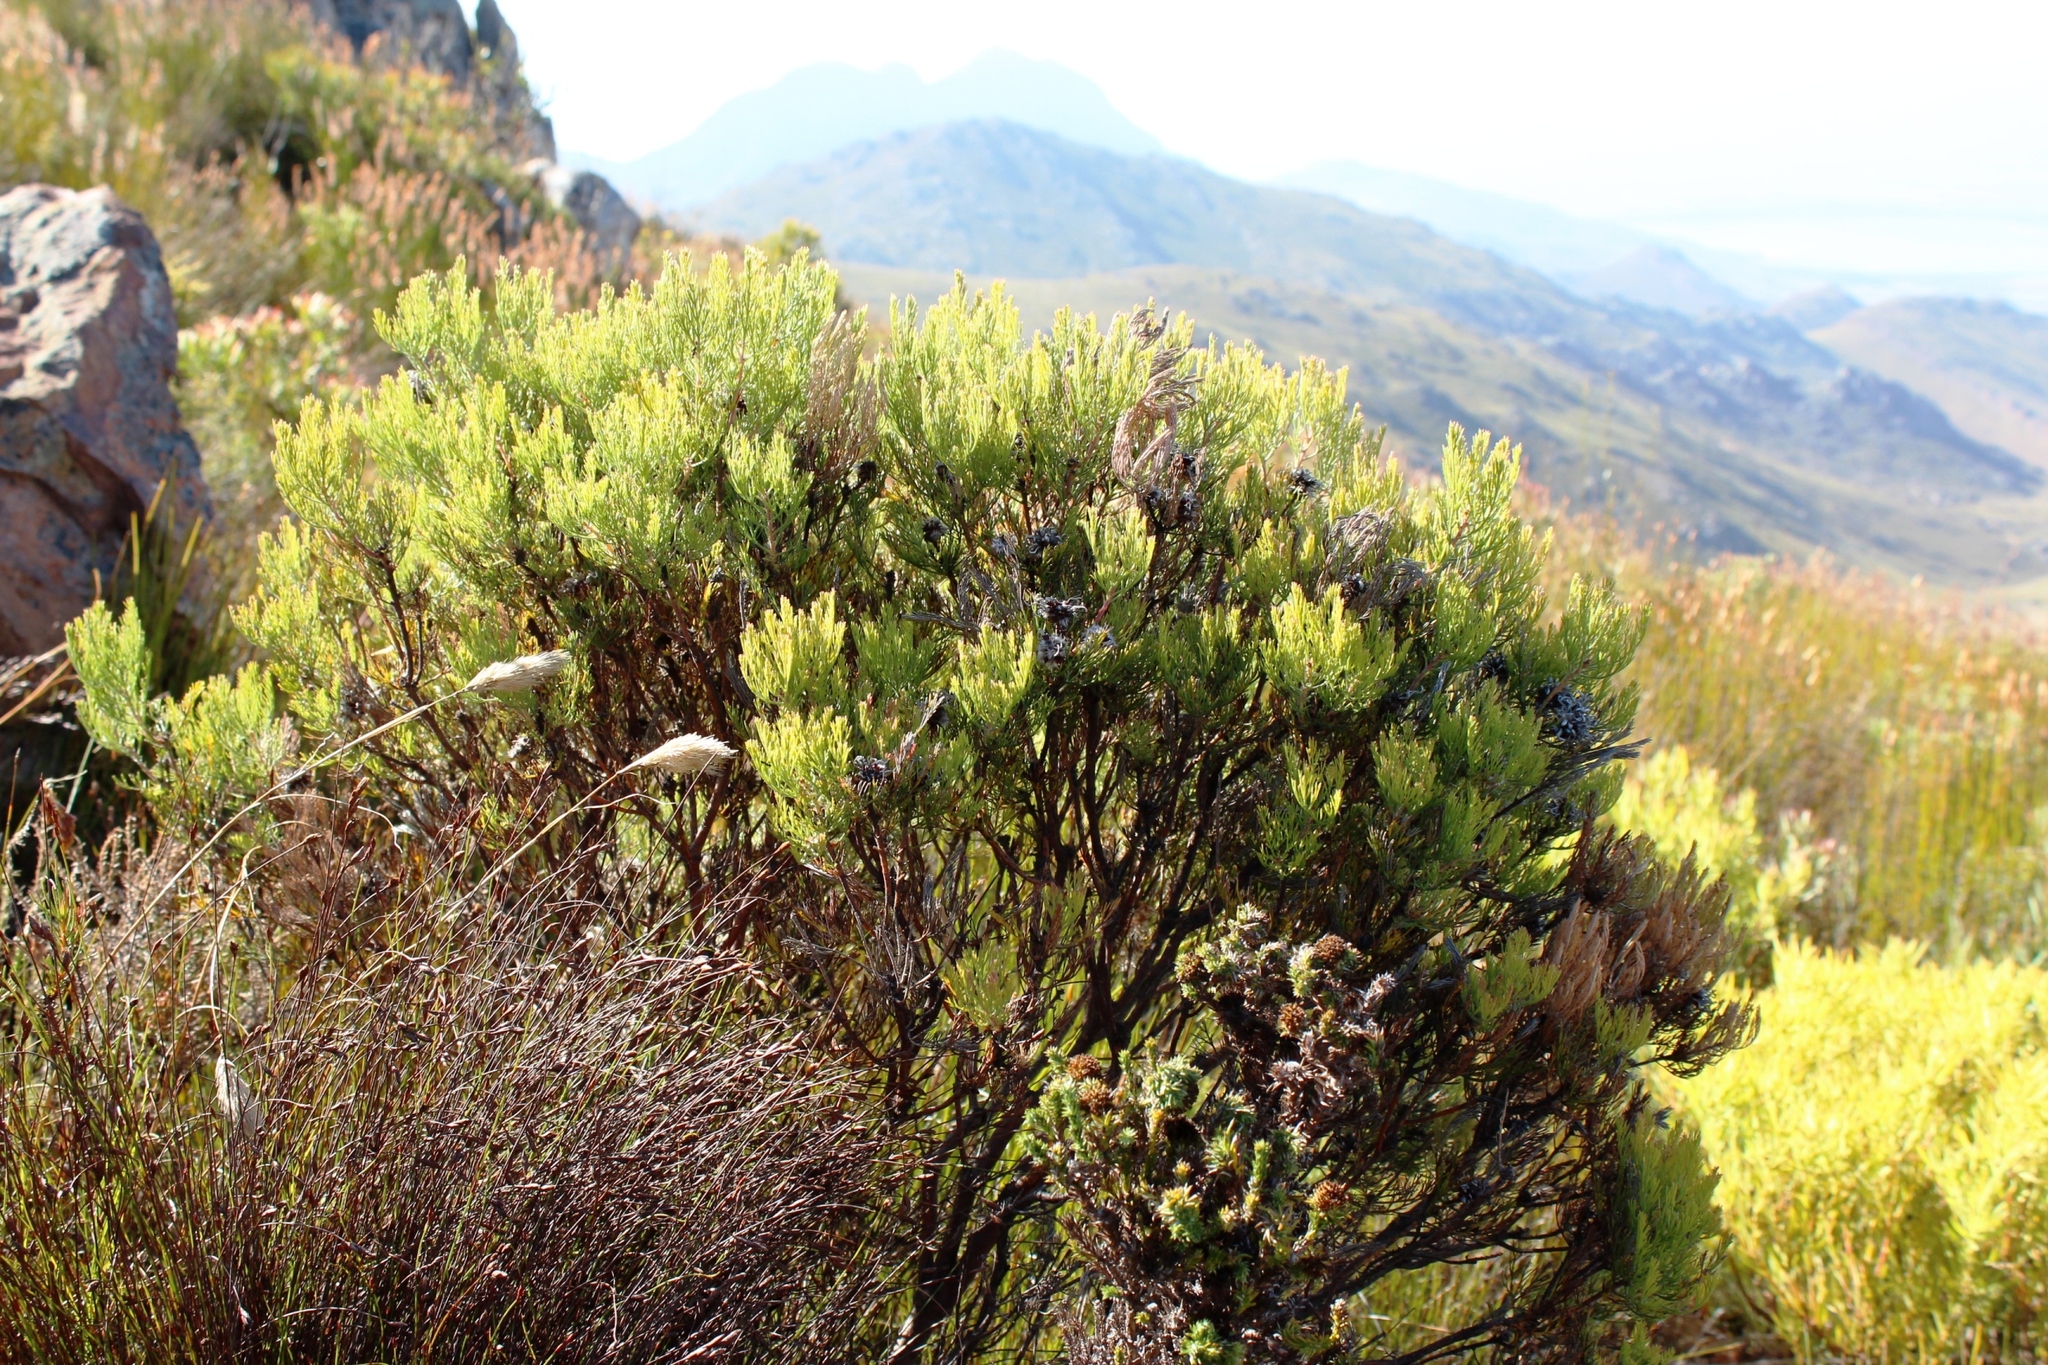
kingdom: Plantae
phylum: Tracheophyta
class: Magnoliopsida
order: Proteales
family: Proteaceae
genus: Serruria
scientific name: Serruria acrocarpa
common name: Common rootstock spiderhead
